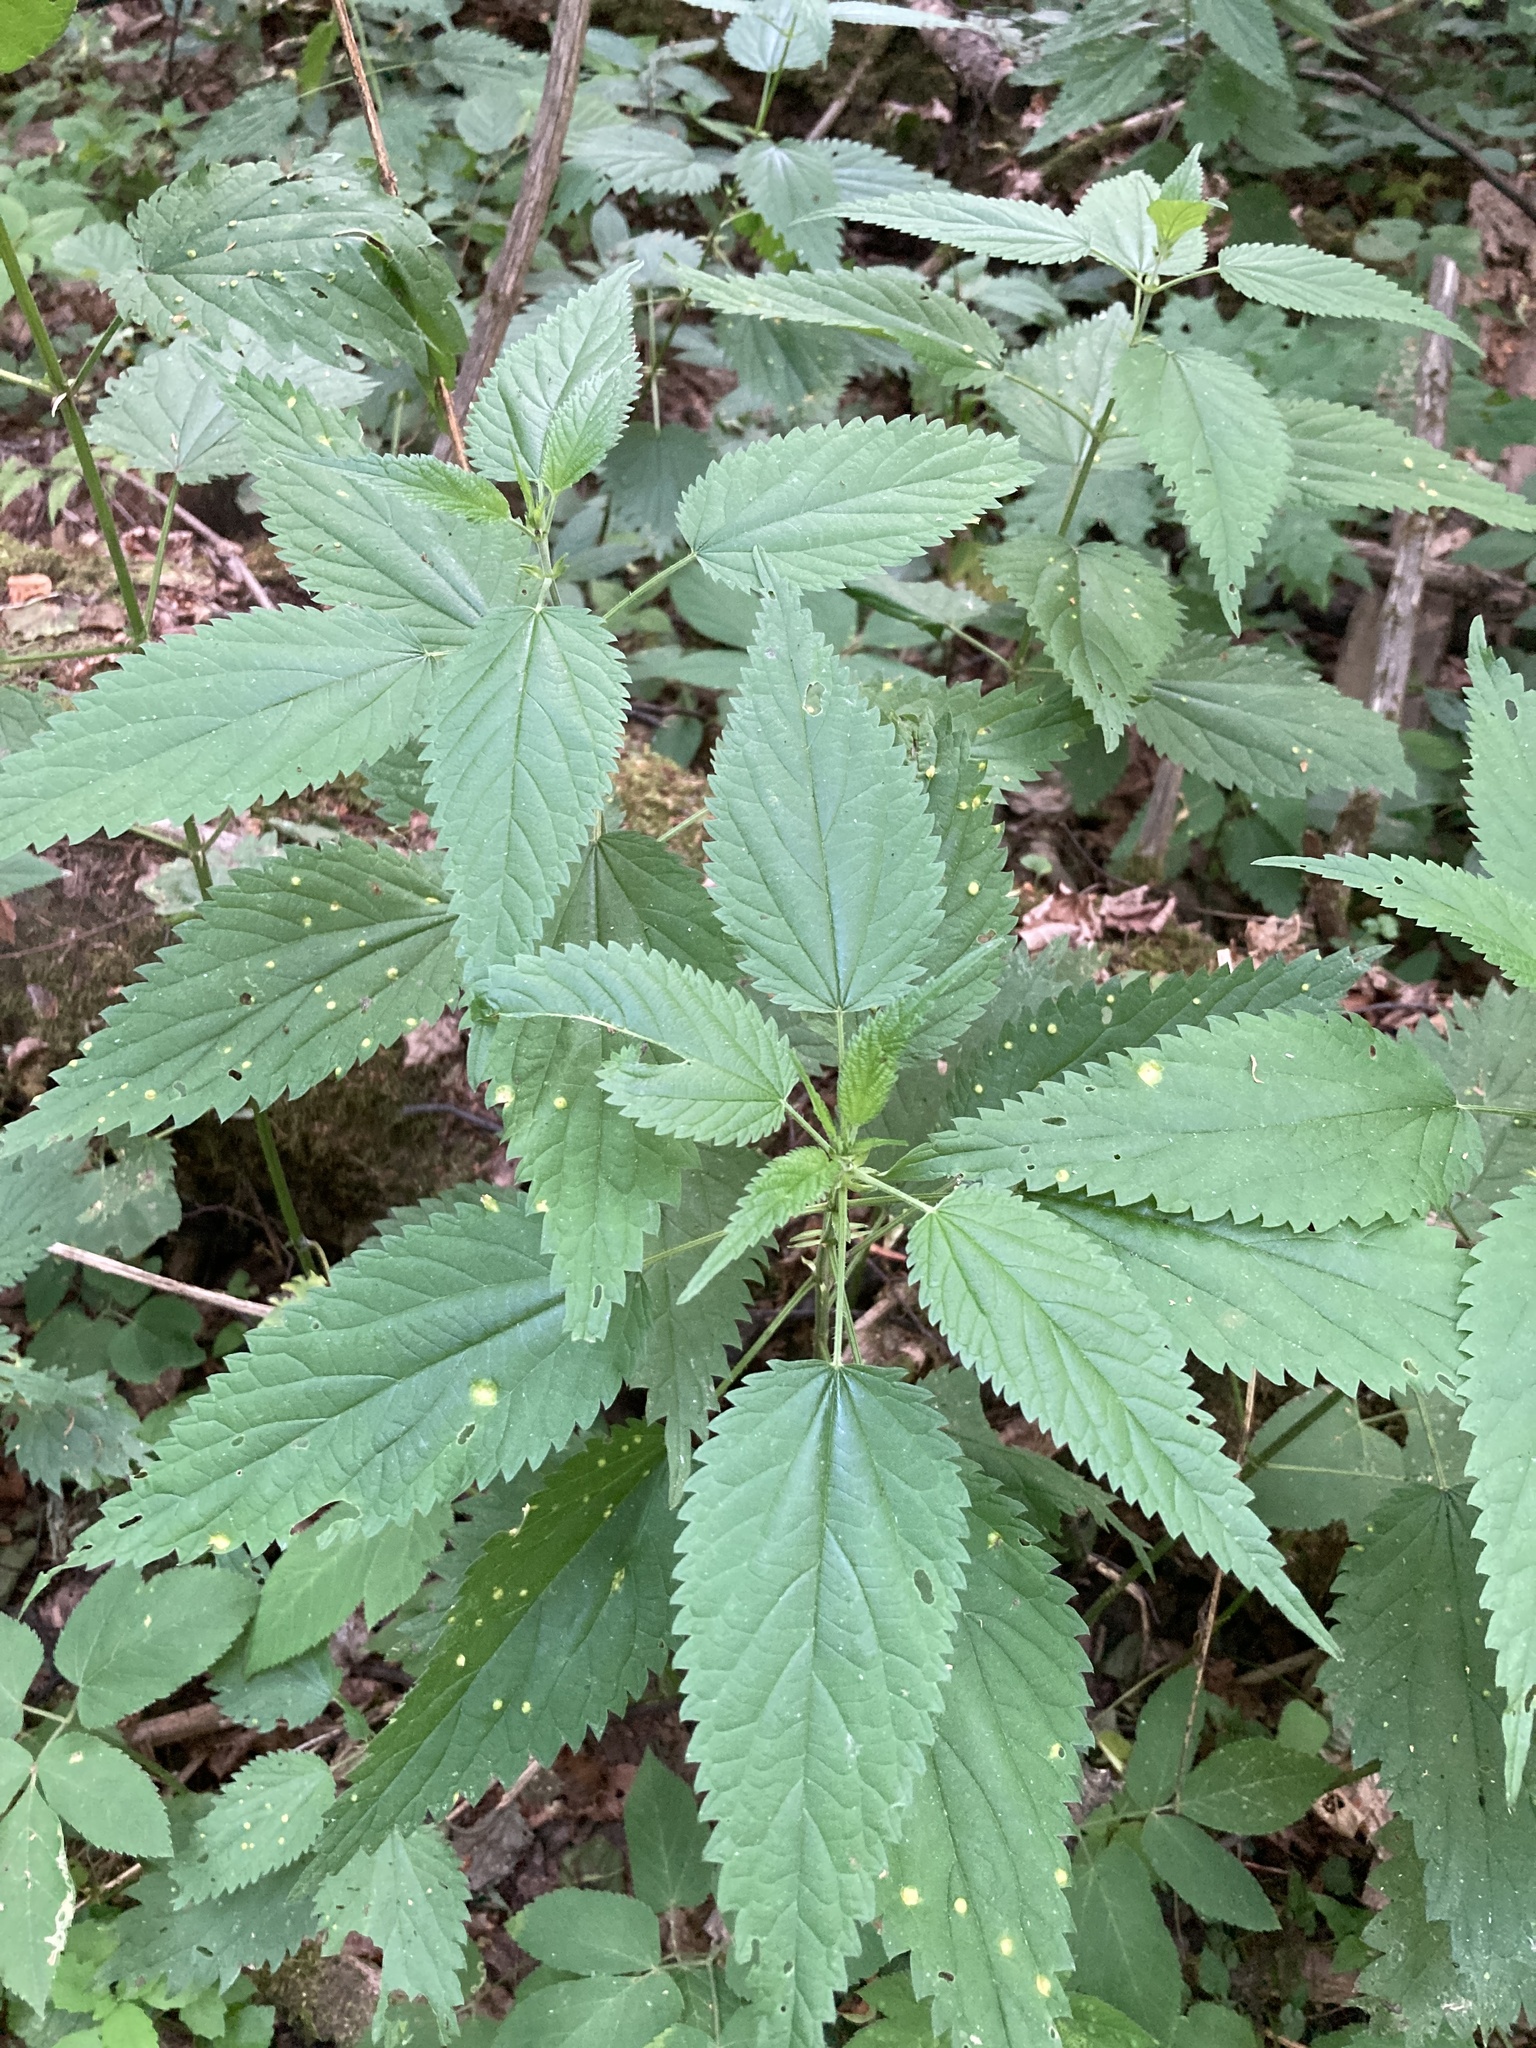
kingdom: Plantae
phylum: Tracheophyta
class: Magnoliopsida
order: Rosales
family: Urticaceae
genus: Urtica
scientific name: Urtica dioica
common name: Common nettle
